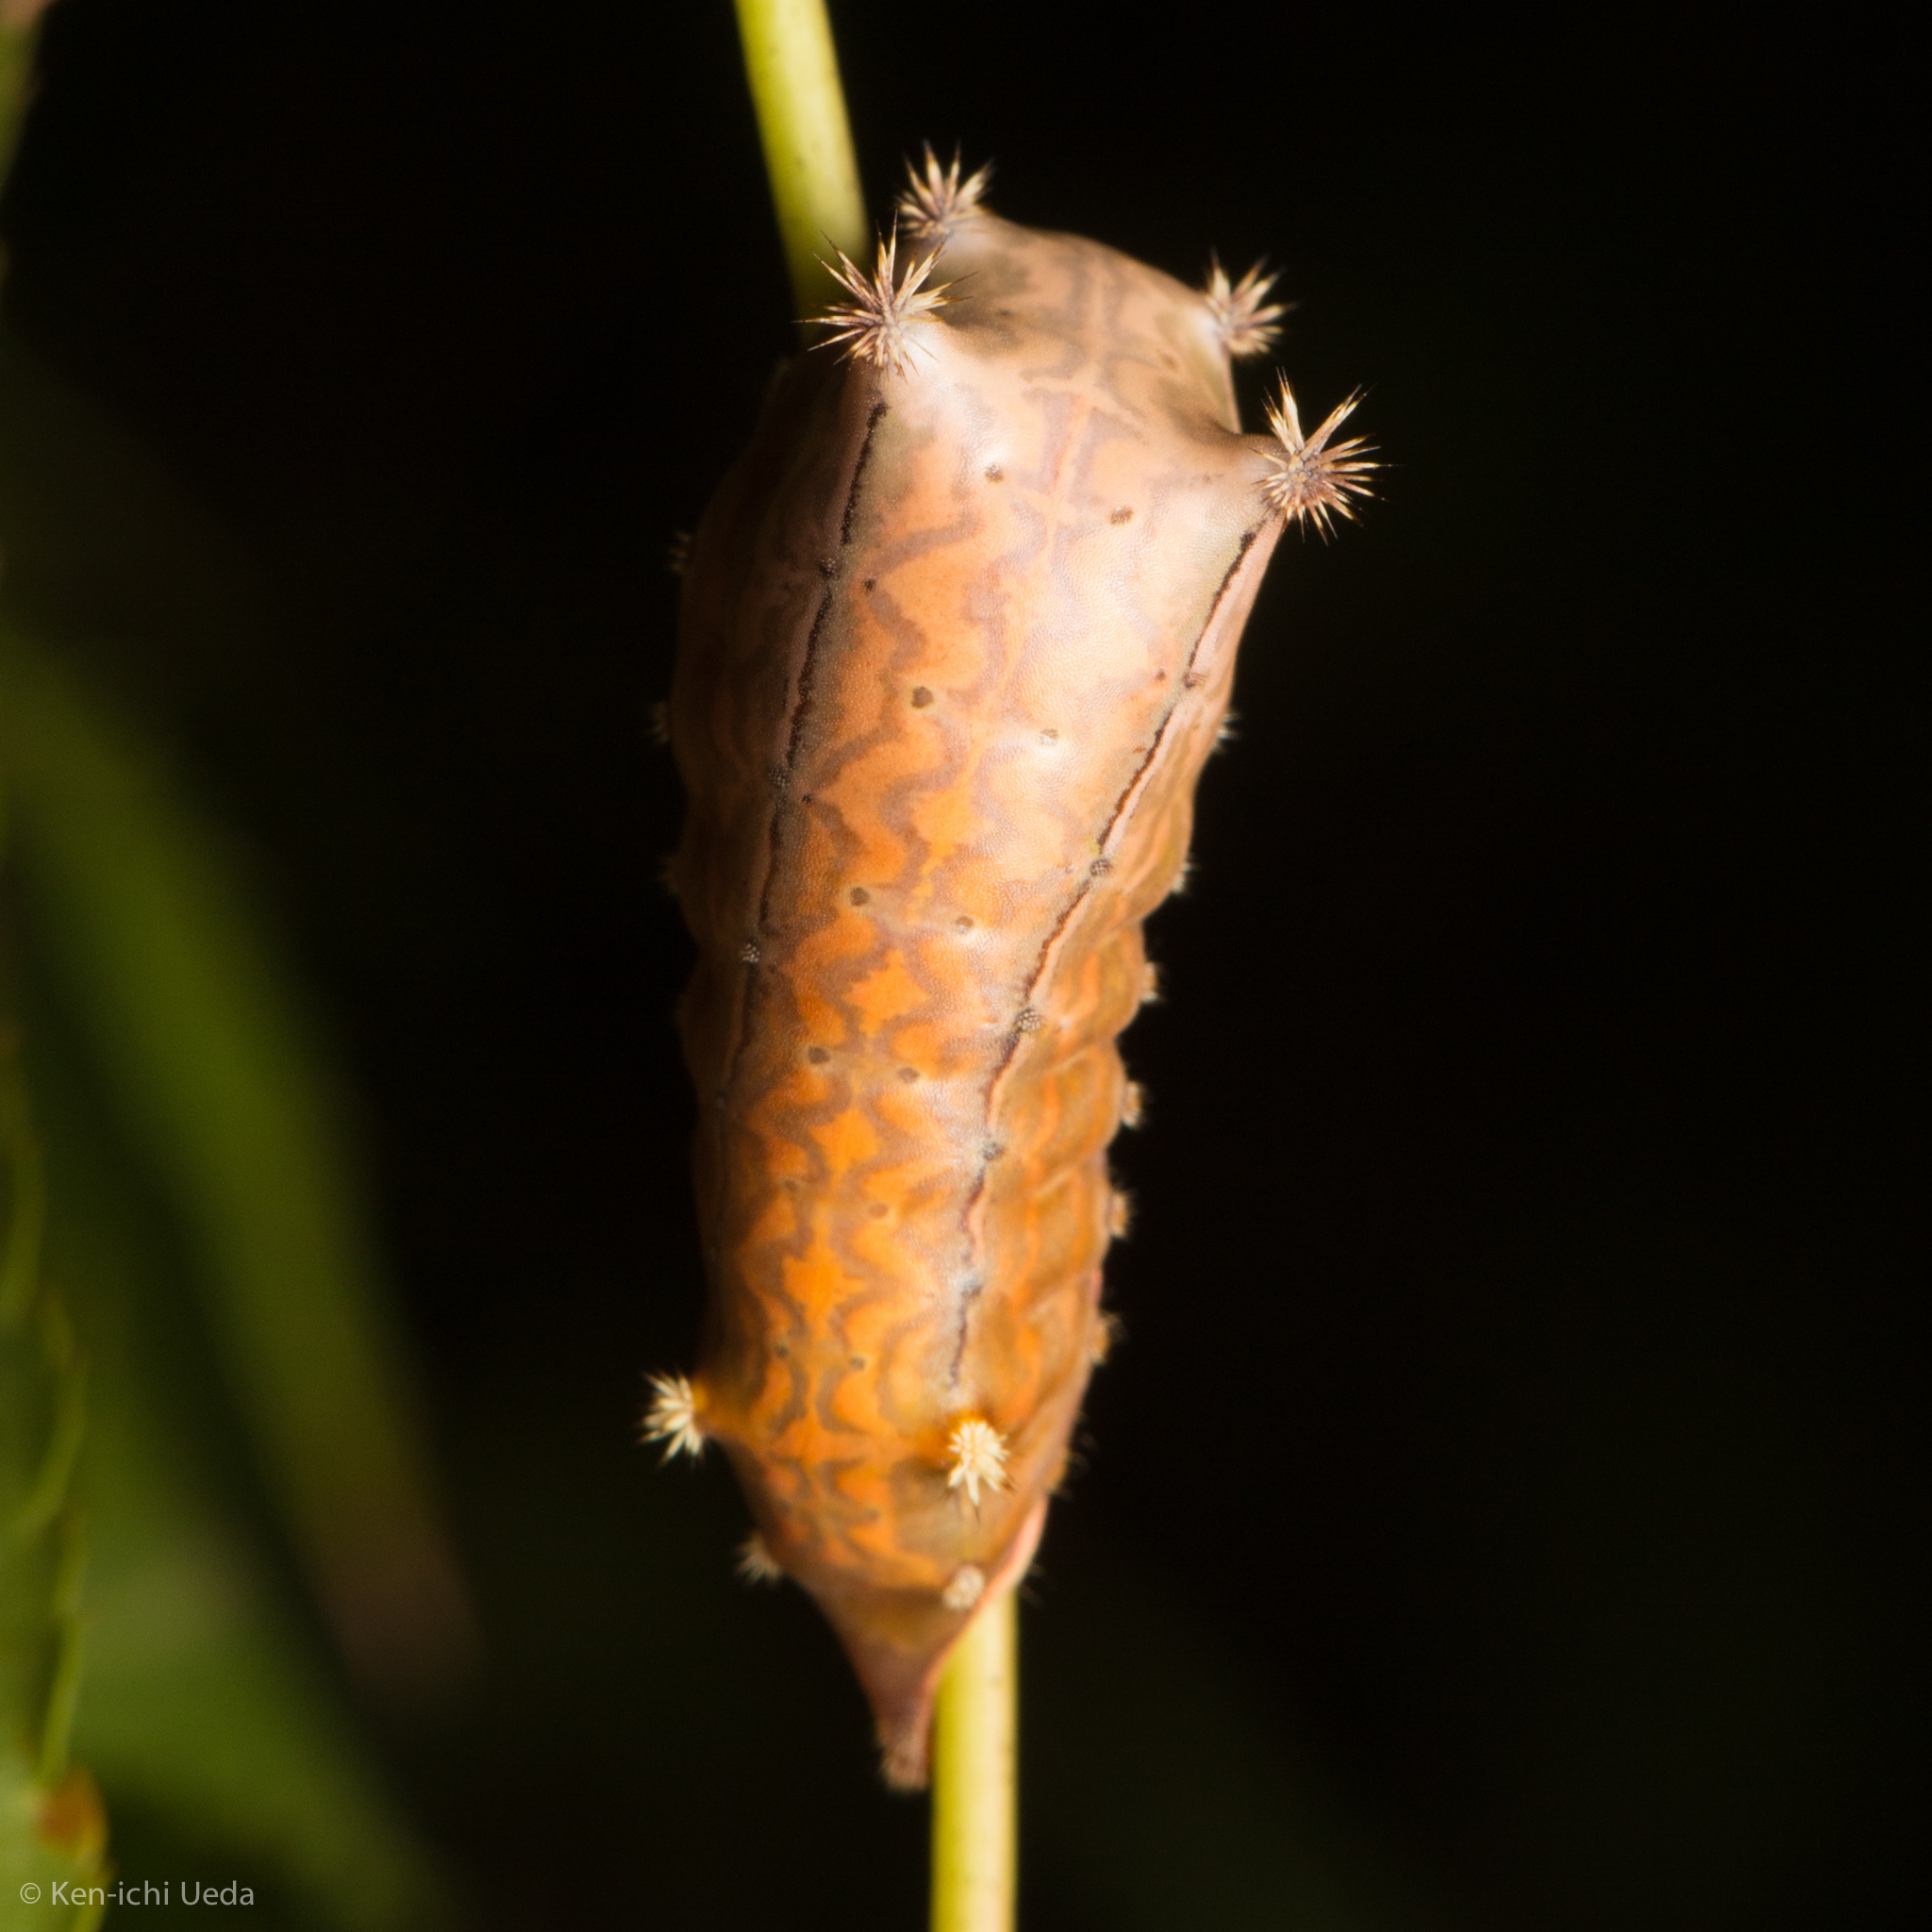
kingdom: Animalia
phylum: Arthropoda
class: Insecta
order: Lepidoptera
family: Limacodidae
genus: Parasa
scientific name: Parasa chloris
